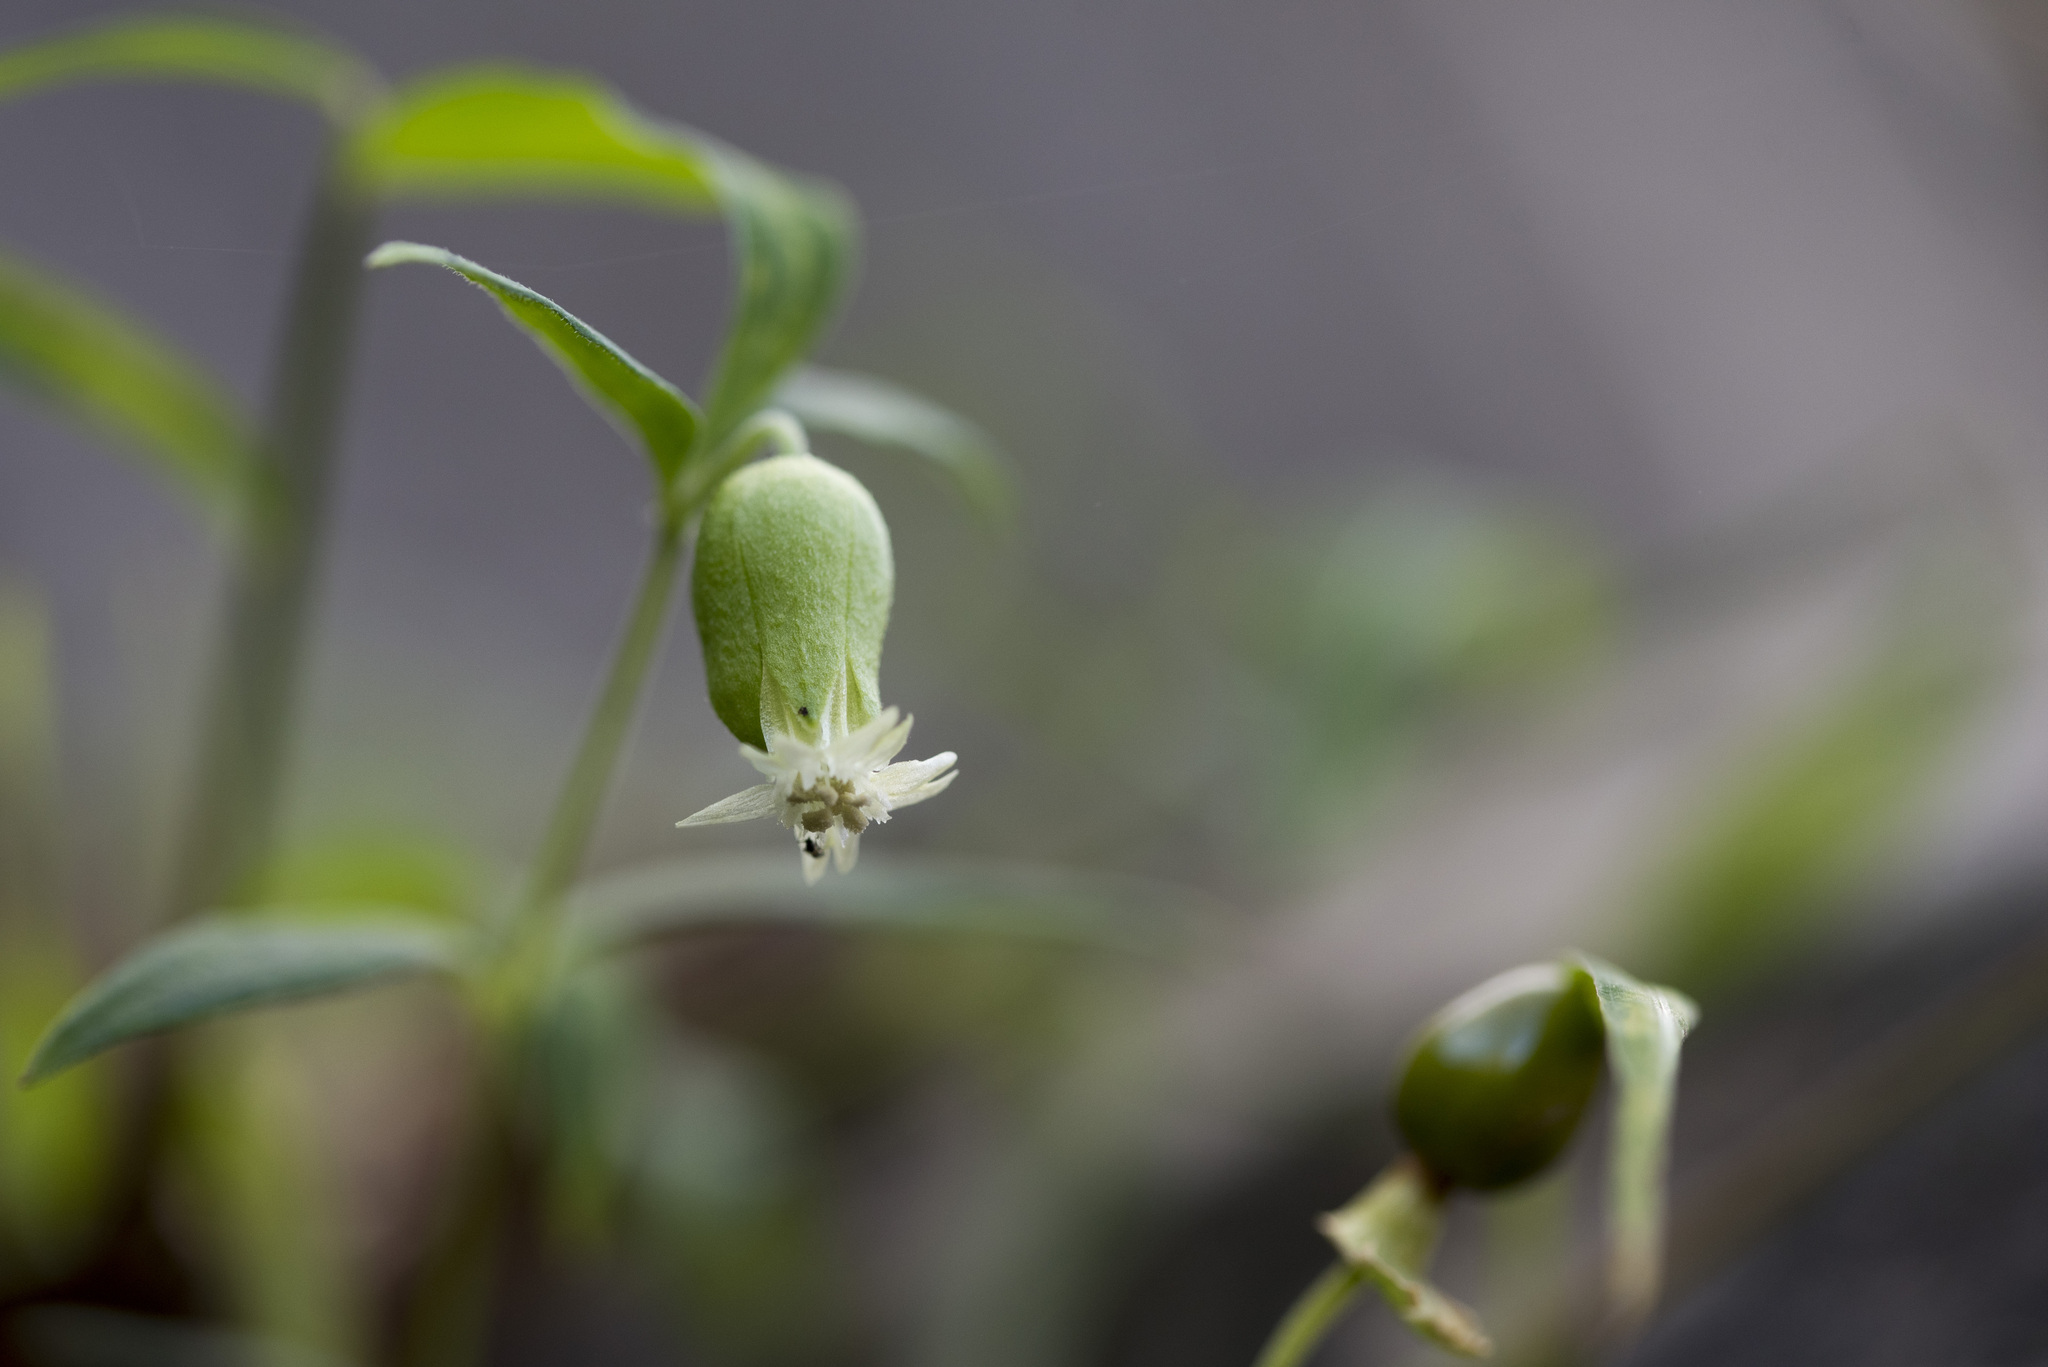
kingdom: Plantae
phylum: Tracheophyta
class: Magnoliopsida
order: Caryophyllales
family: Caryophyllaceae
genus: Silene
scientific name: Silene baccifera
